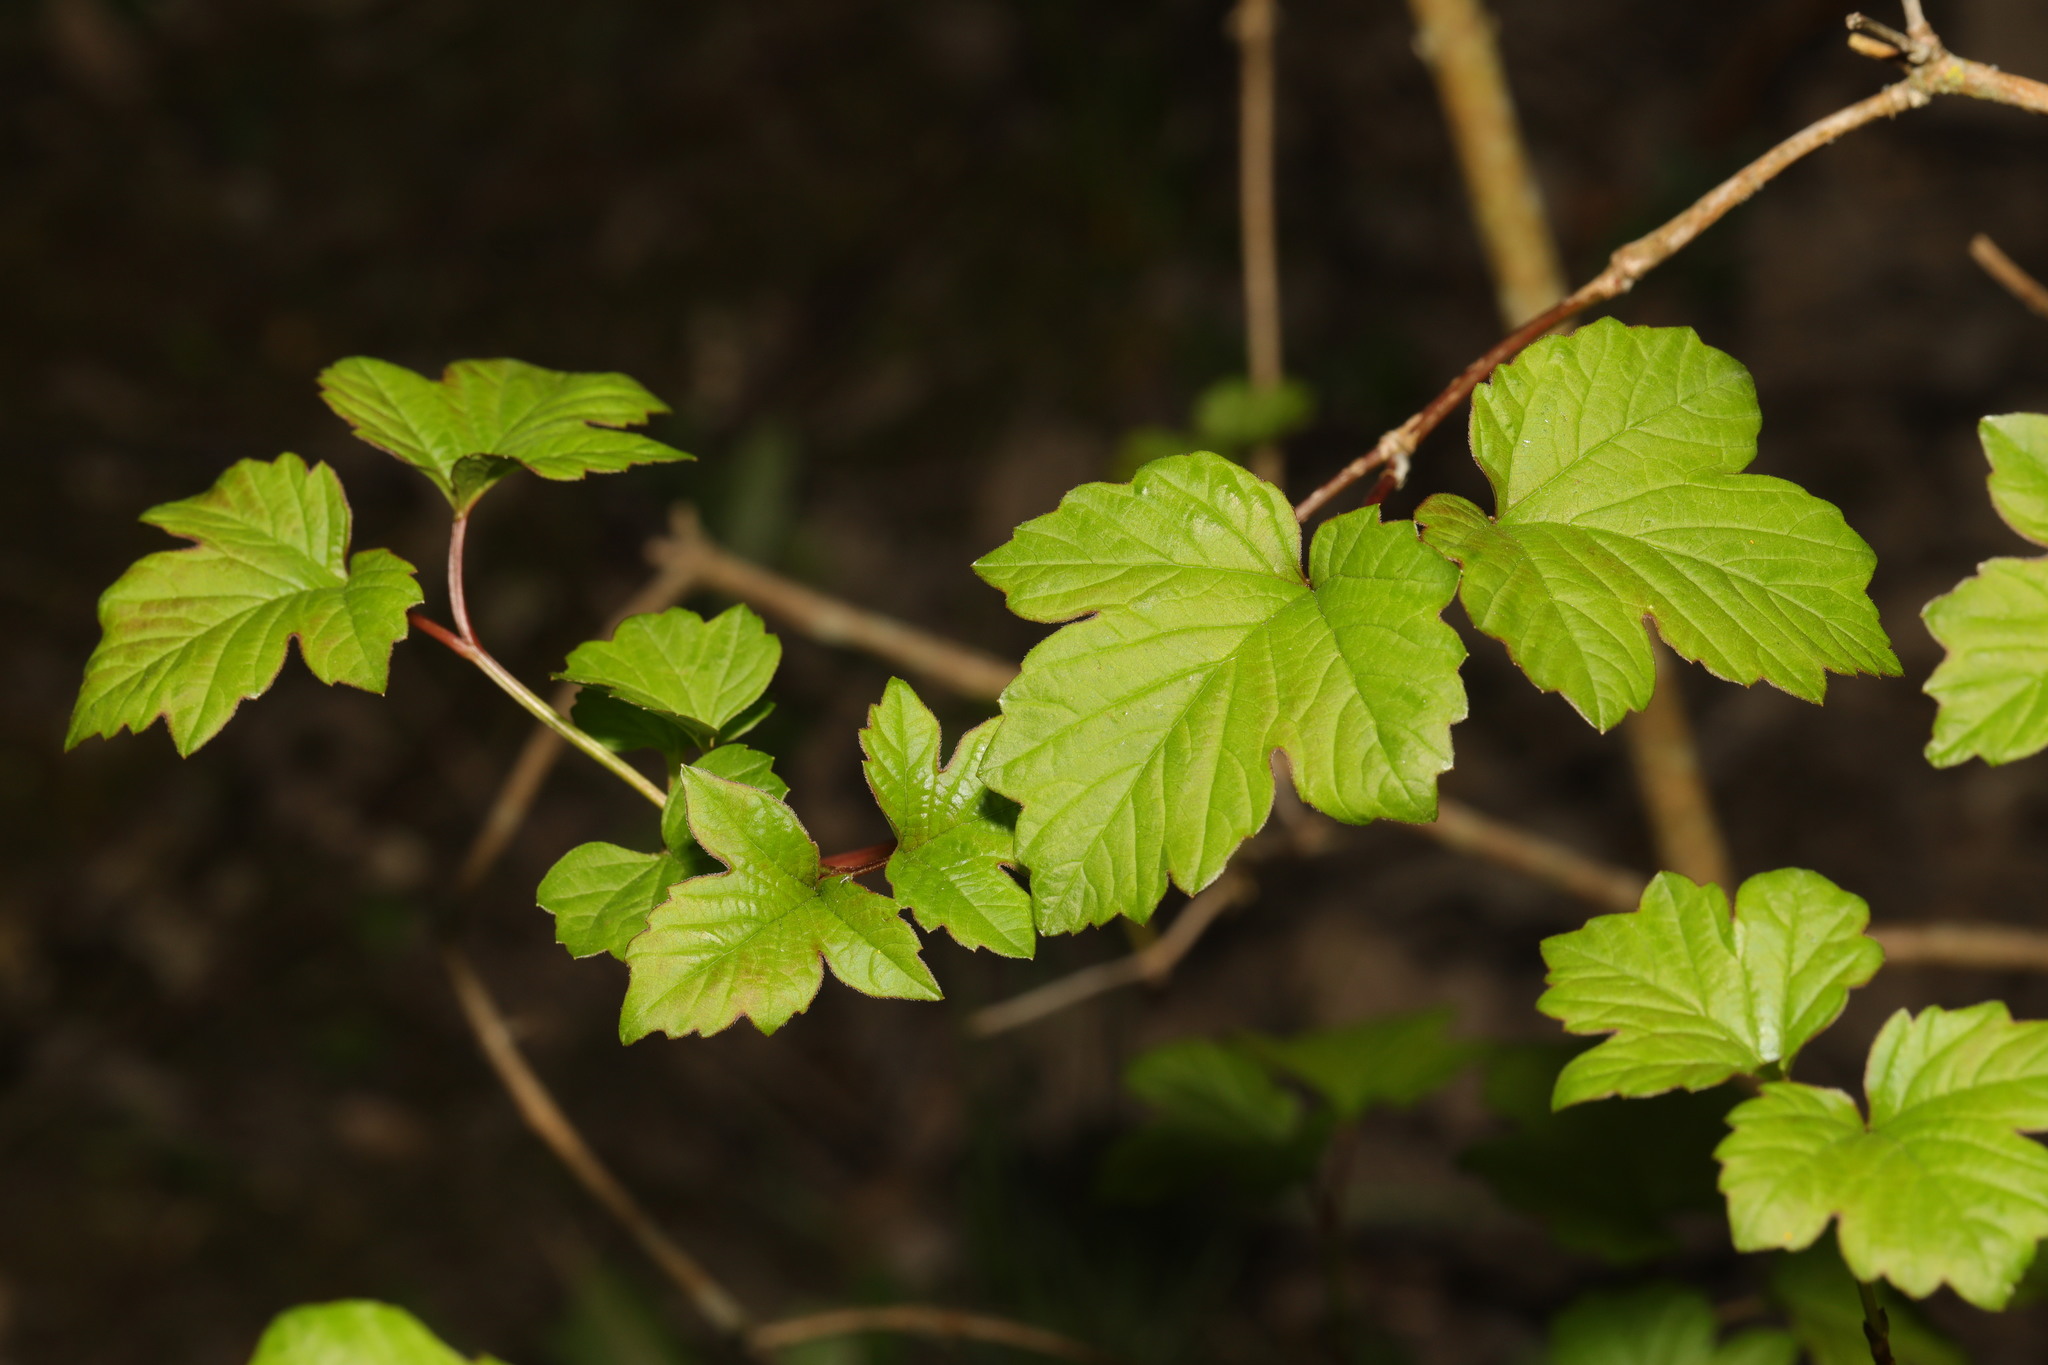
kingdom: Plantae
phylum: Tracheophyta
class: Magnoliopsida
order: Dipsacales
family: Viburnaceae
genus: Viburnum
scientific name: Viburnum opulus
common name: Guelder-rose
